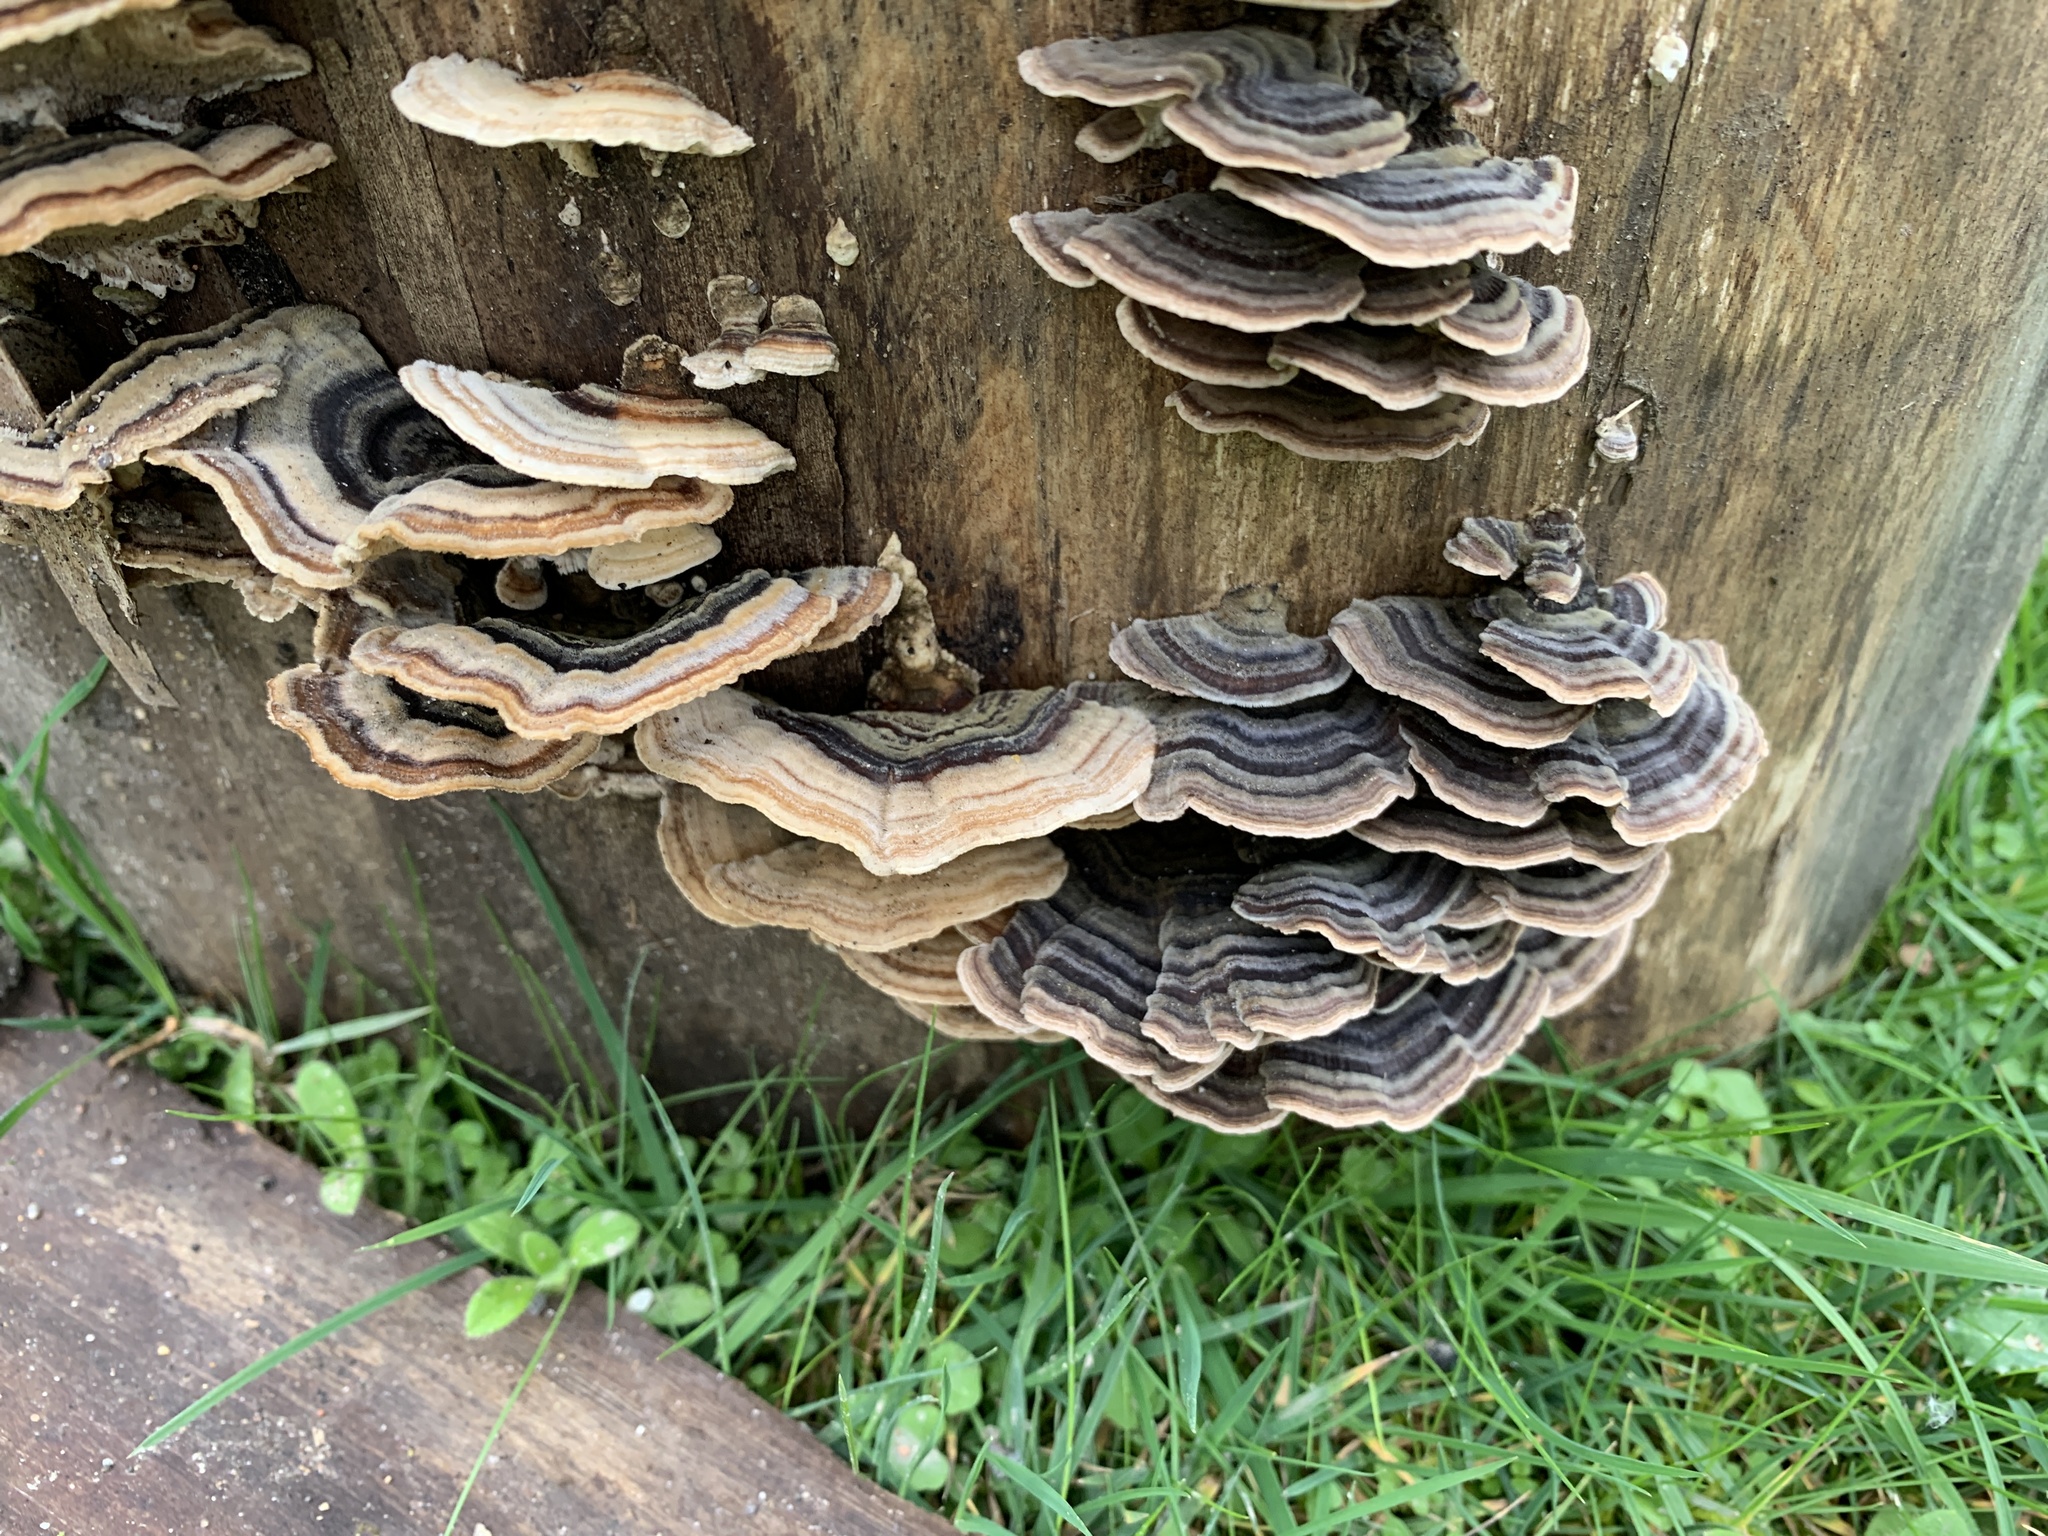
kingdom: Fungi
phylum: Basidiomycota
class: Agaricomycetes
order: Polyporales
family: Polyporaceae
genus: Trametes
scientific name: Trametes versicolor
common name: Turkeytail
